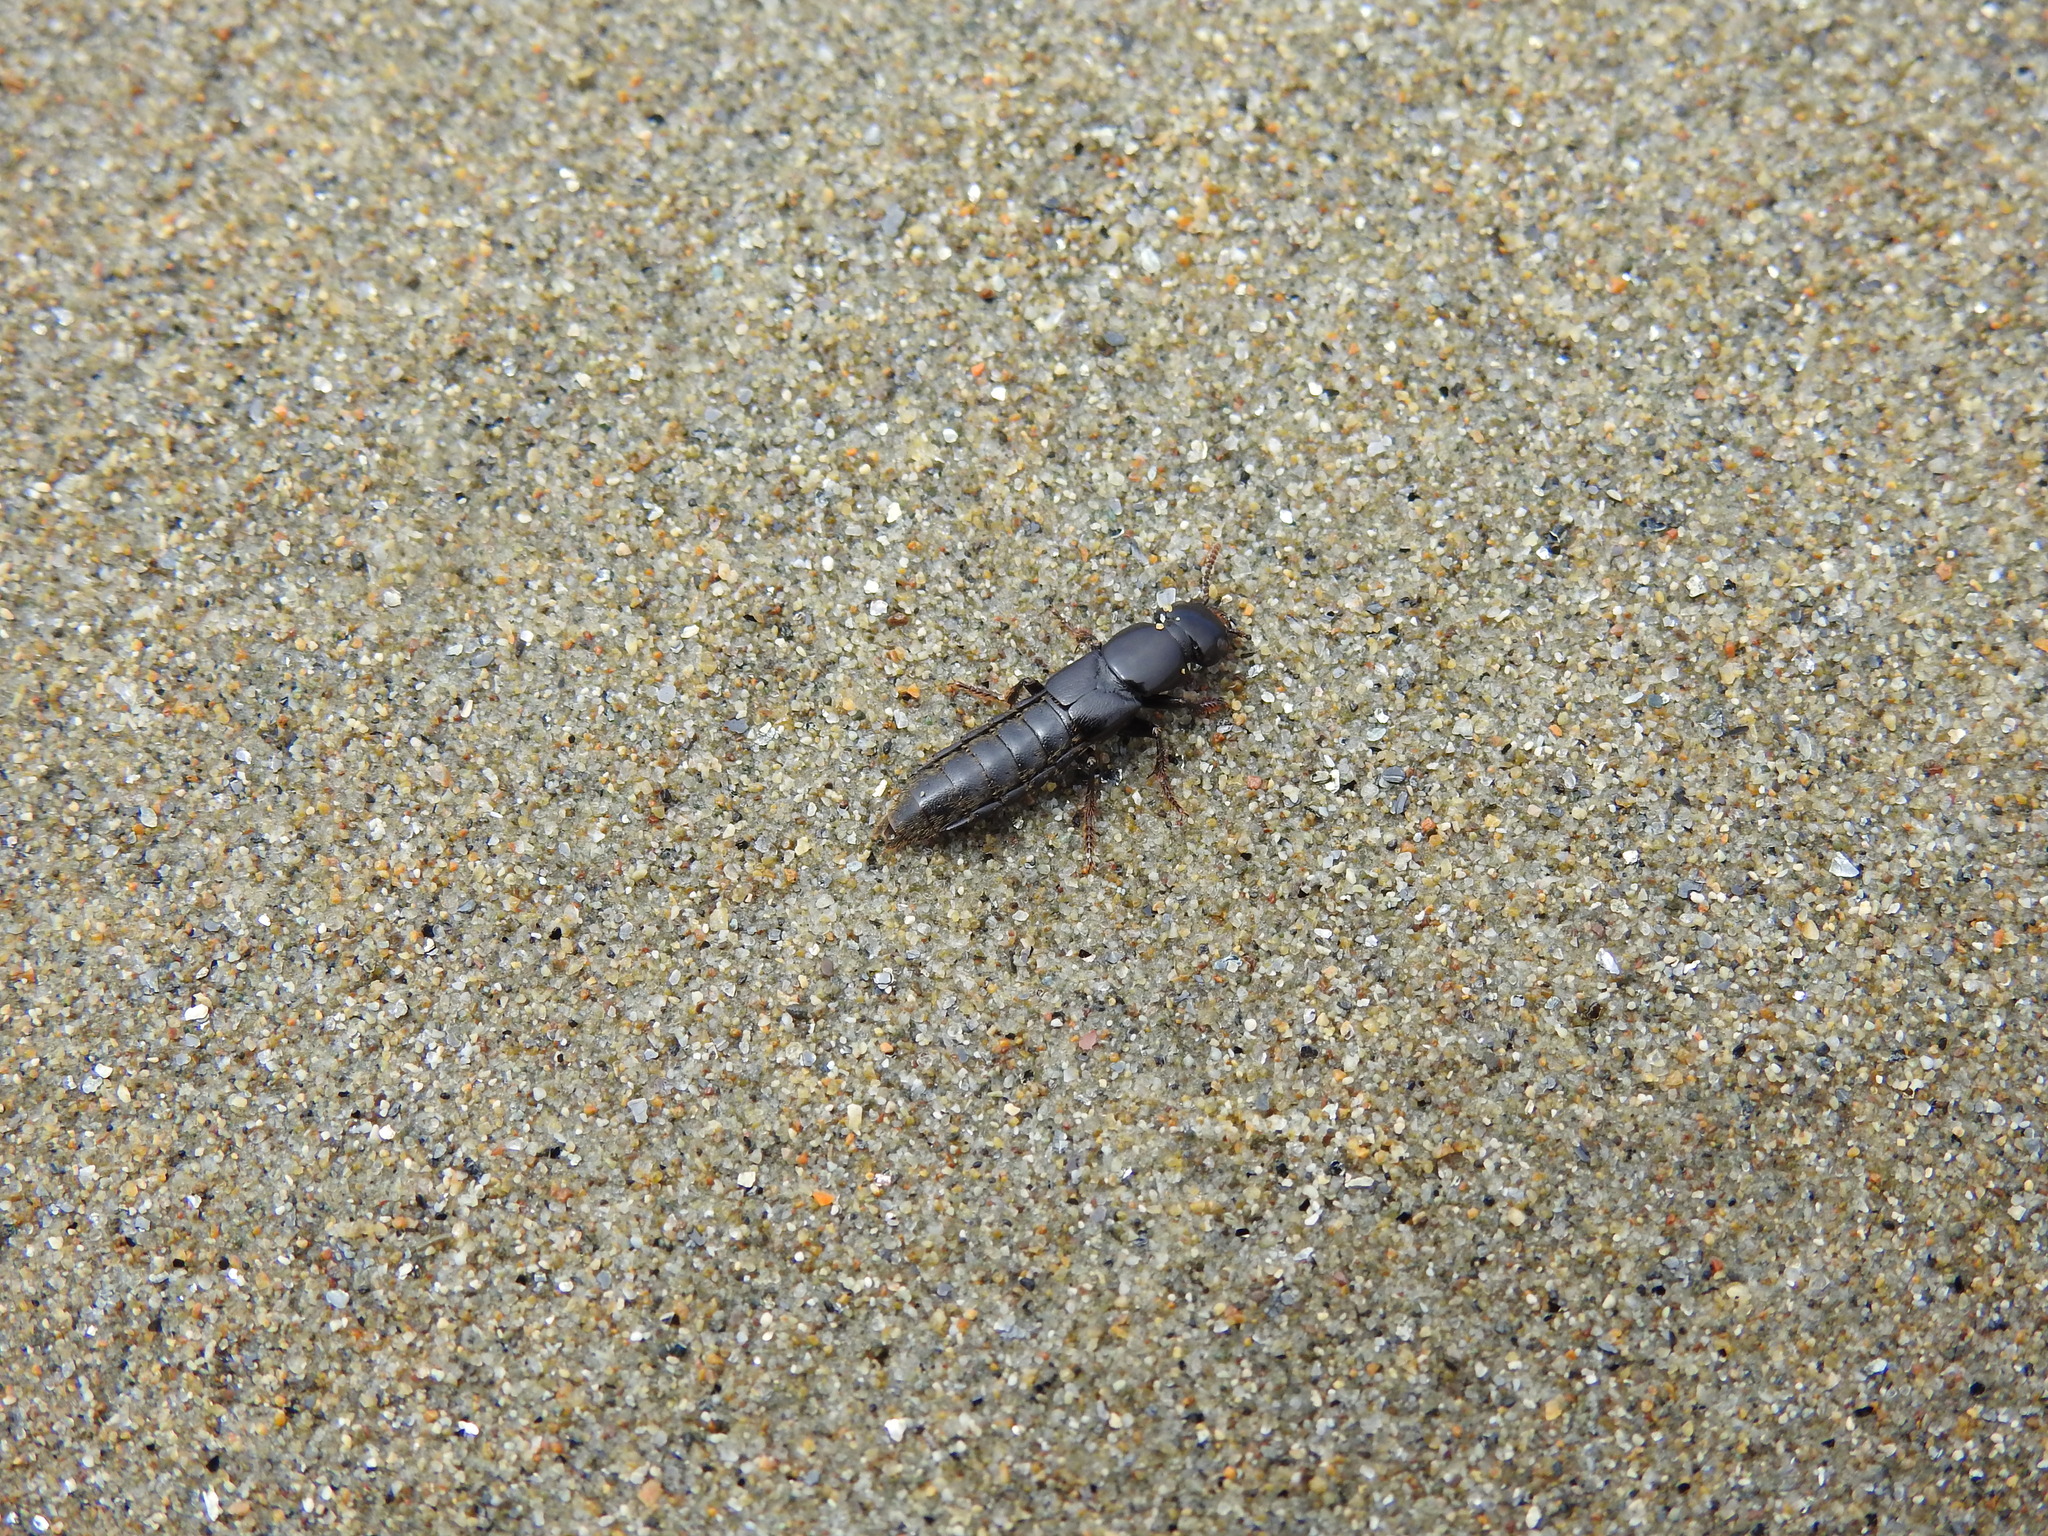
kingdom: Animalia
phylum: Arthropoda
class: Insecta
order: Coleoptera
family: Staphylinidae
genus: Hadrotes
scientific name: Hadrotes crassus
